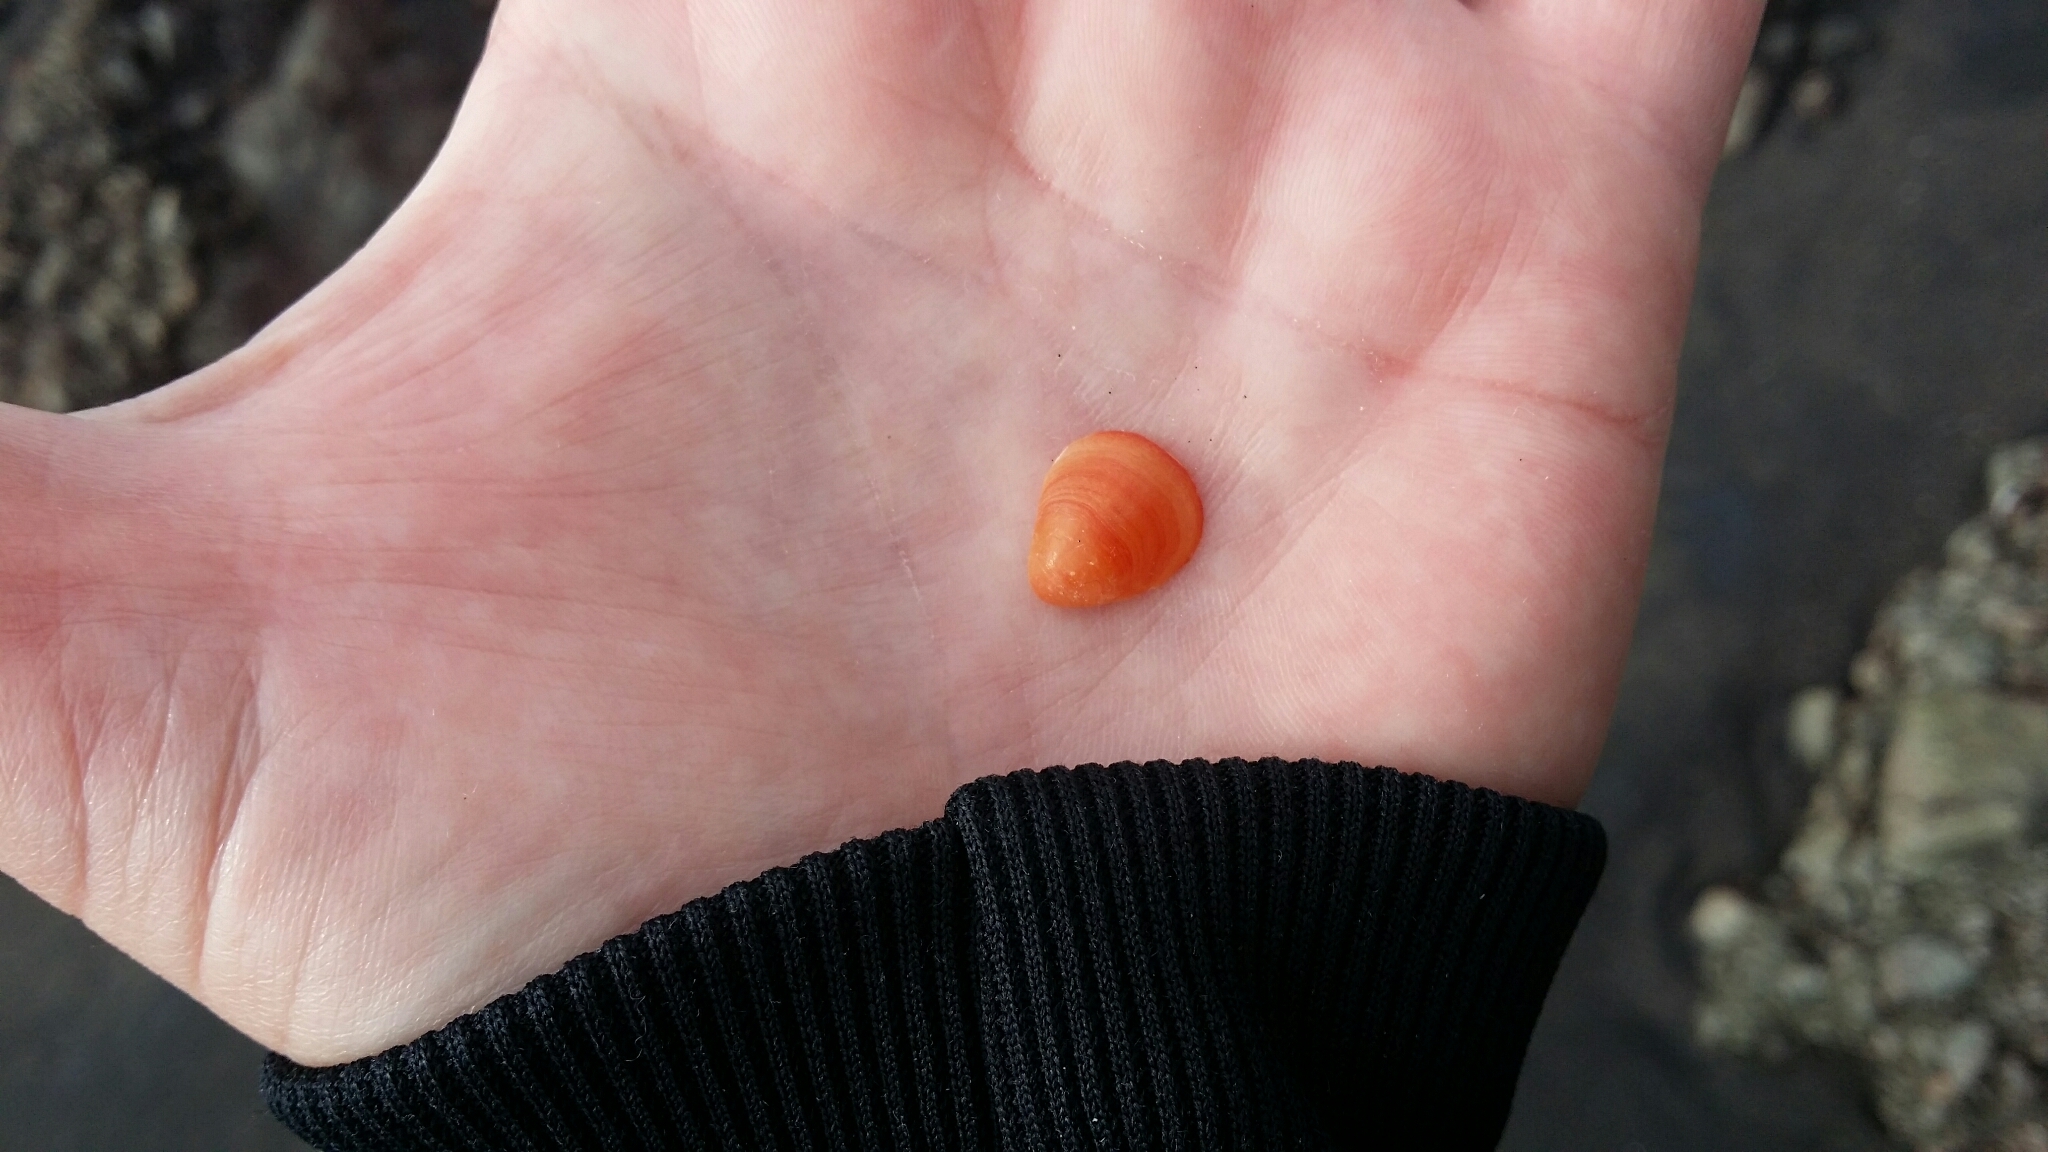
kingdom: Animalia
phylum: Brachiopoda
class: Rhynchonellata
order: Terebratulida
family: Terebratellidae
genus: Calloria
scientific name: Calloria inconspicua
